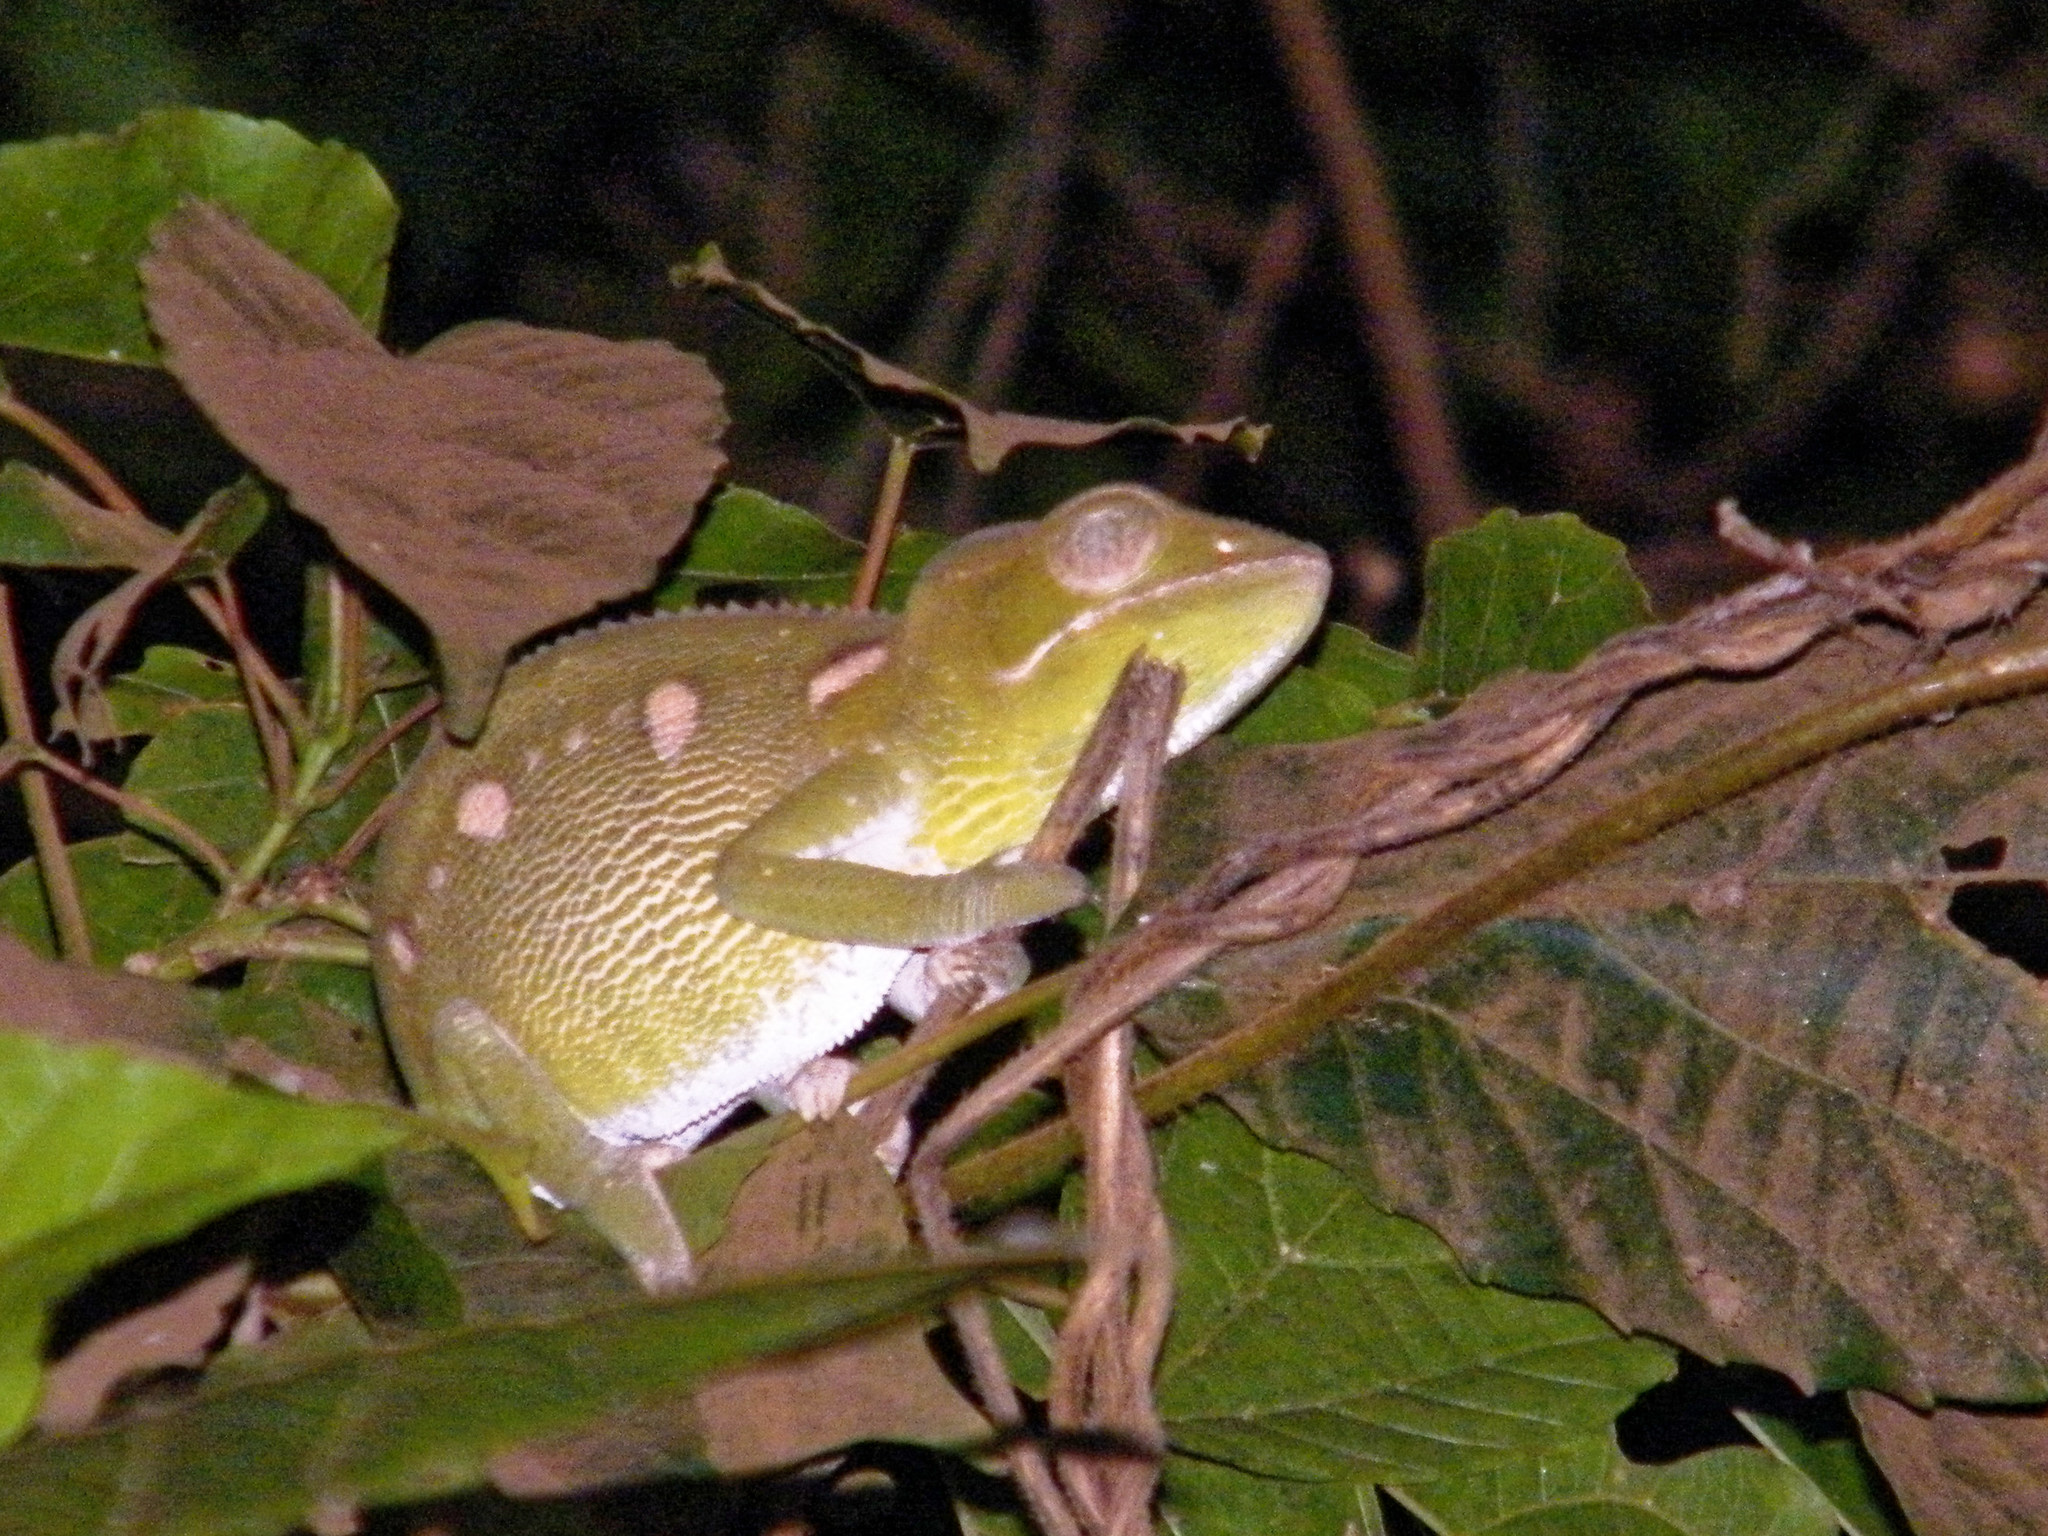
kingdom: Animalia
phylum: Chordata
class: Squamata
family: Chamaeleonidae
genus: Furcifer
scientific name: Furcifer oustaleti
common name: Oustalet's chameleon
